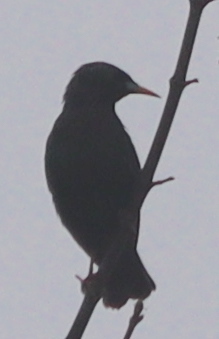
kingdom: Animalia
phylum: Chordata
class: Aves
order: Passeriformes
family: Sturnidae
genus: Sturnus
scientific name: Sturnus vulgaris
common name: Common starling
